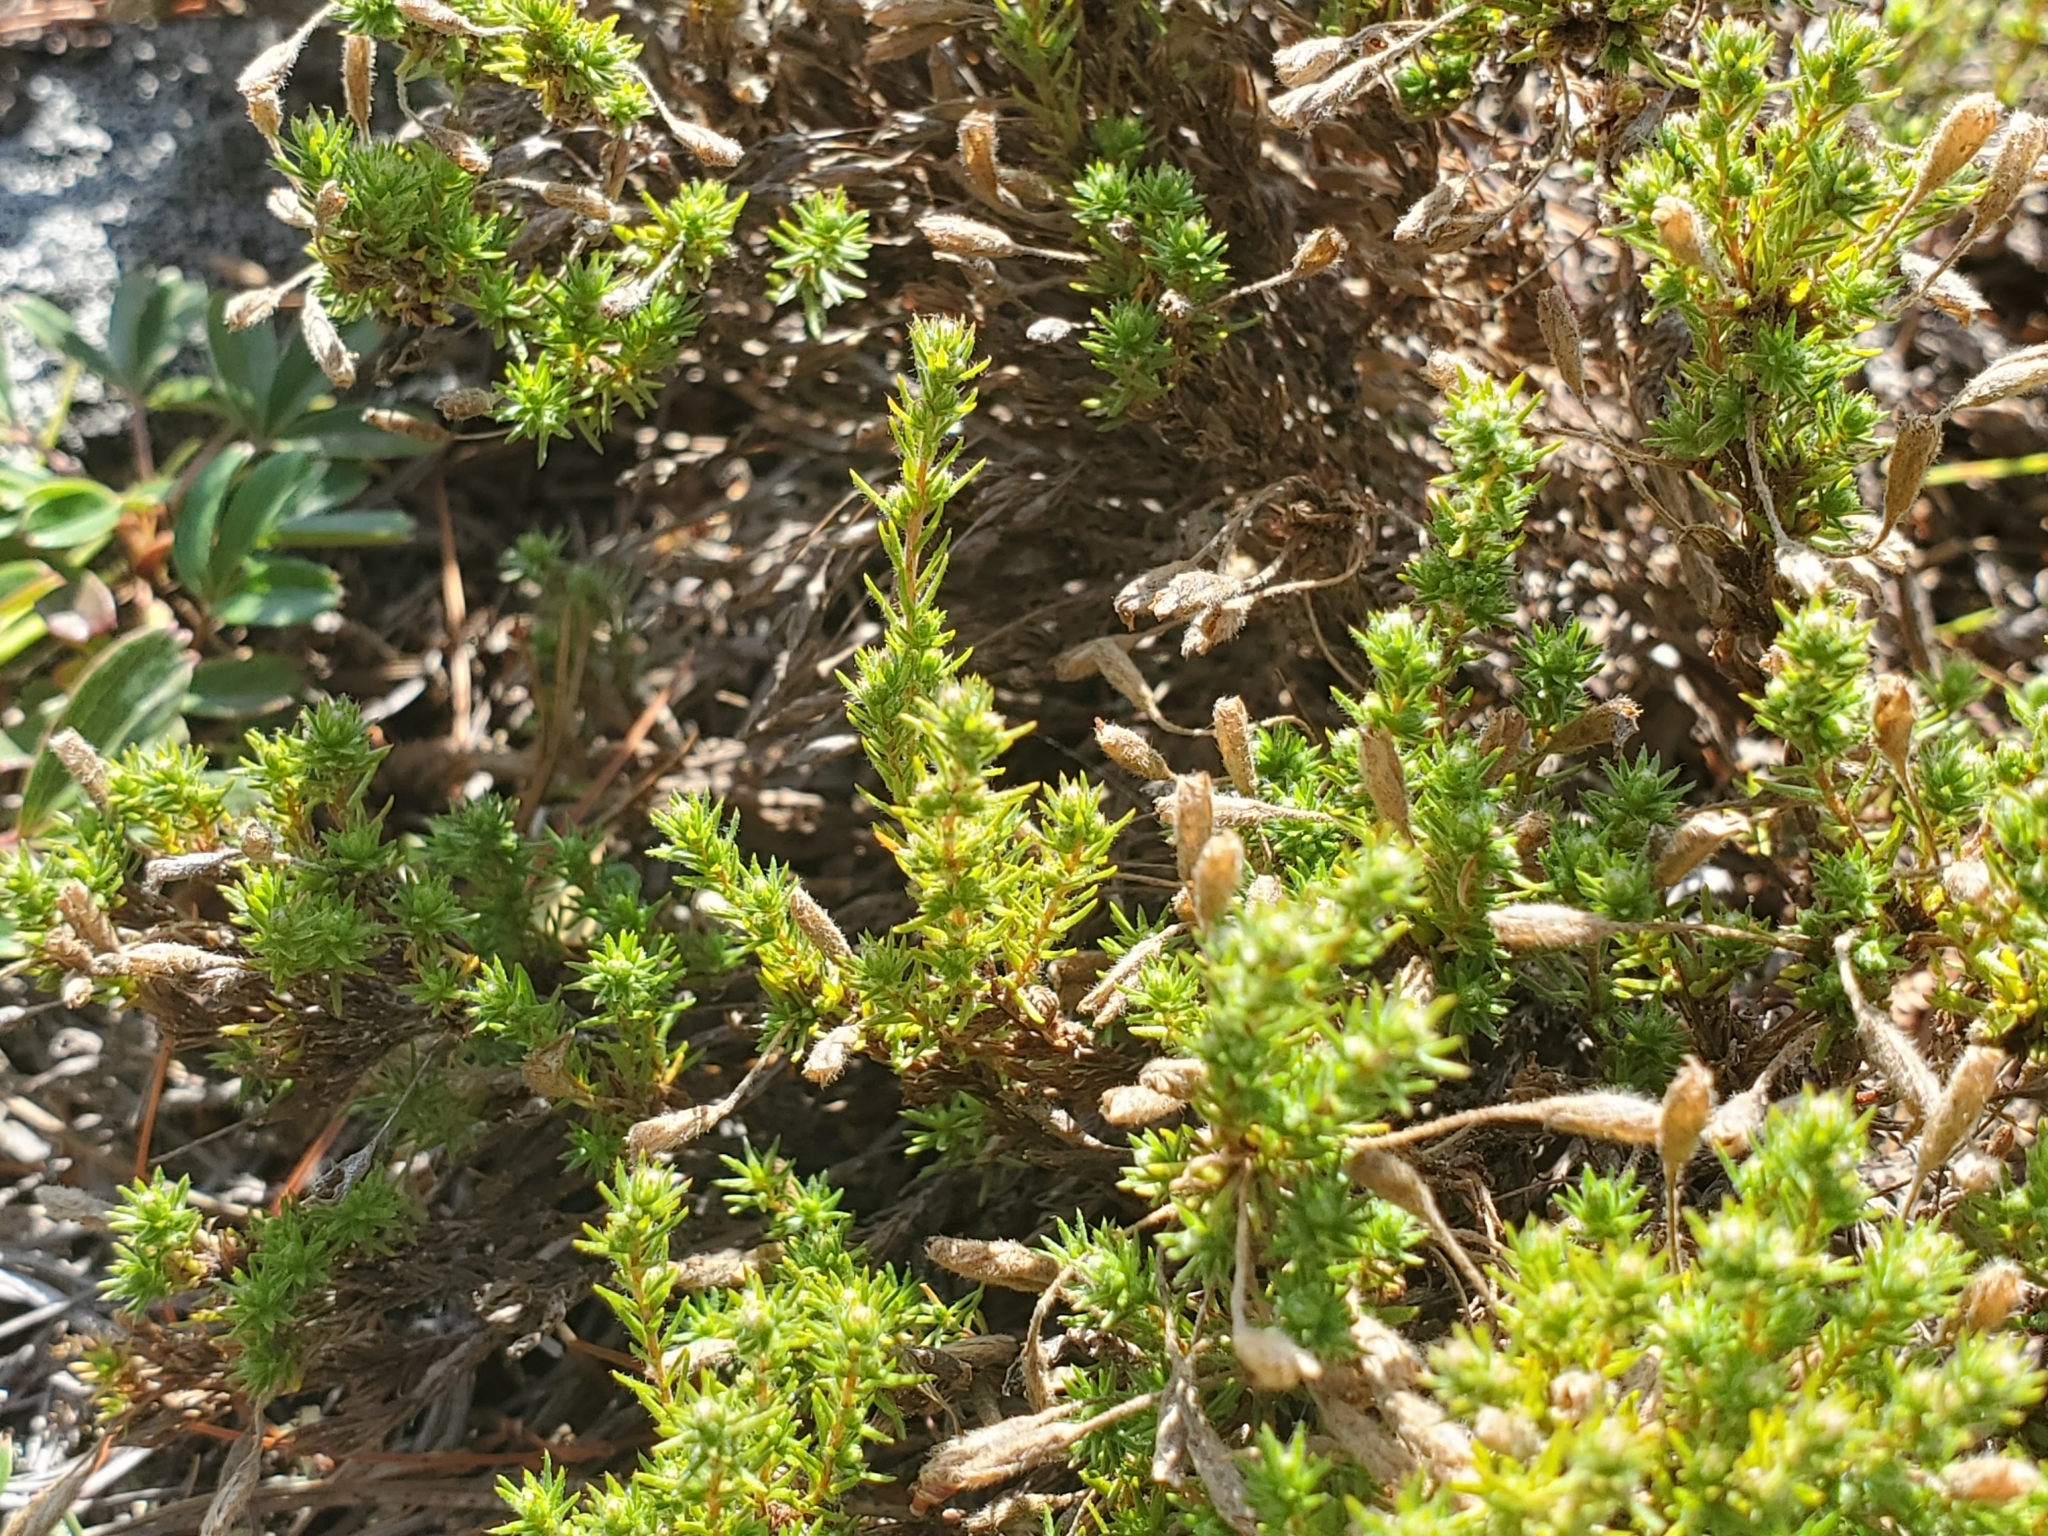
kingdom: Plantae
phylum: Tracheophyta
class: Magnoliopsida
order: Malvales
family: Cistaceae
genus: Hudsonia
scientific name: Hudsonia ericoides
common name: Golden-heather
